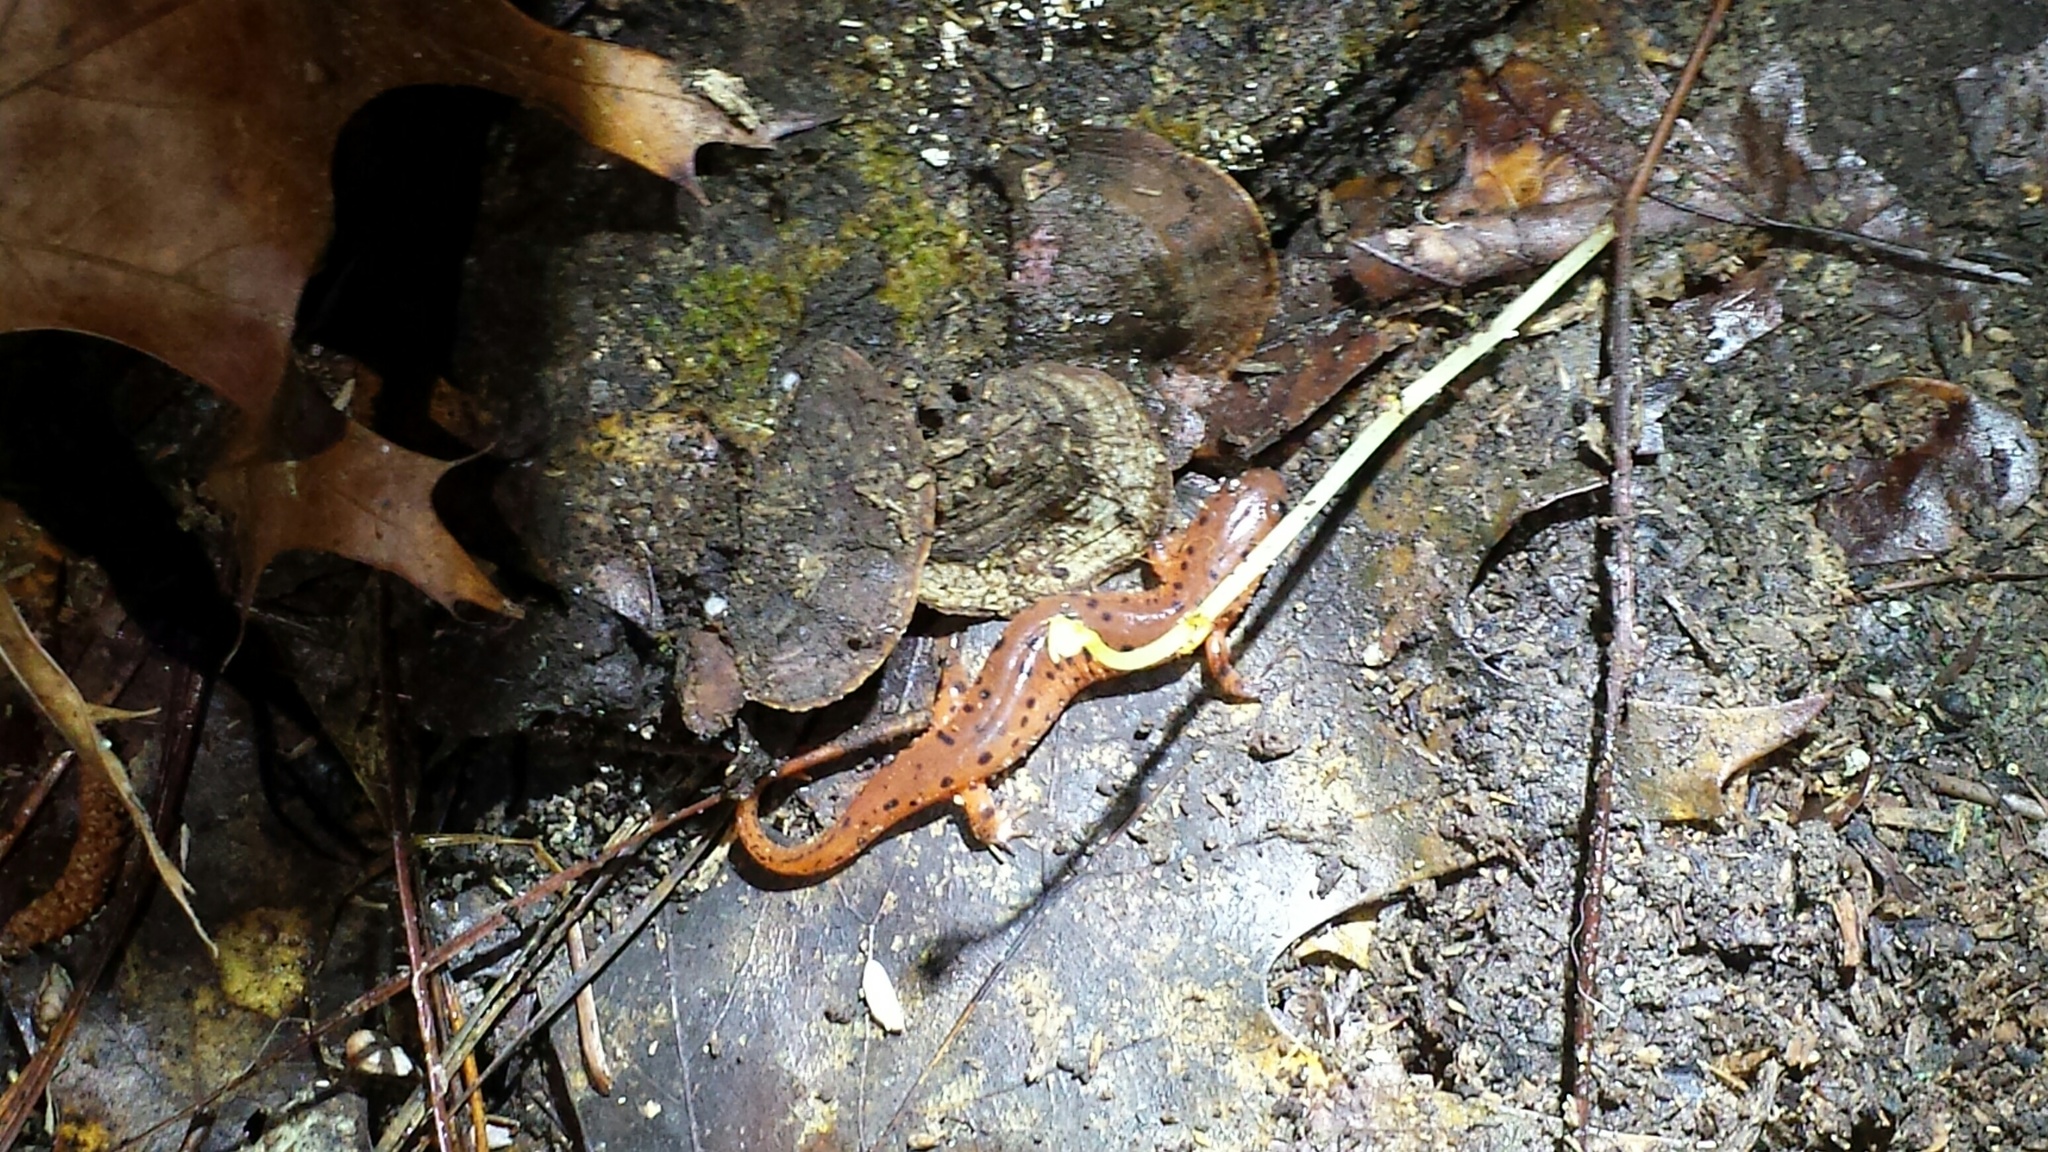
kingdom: Animalia
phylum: Chordata
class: Amphibia
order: Caudata
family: Plethodontidae
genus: Pseudotriton
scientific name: Pseudotriton montanus
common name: Mud salamander
